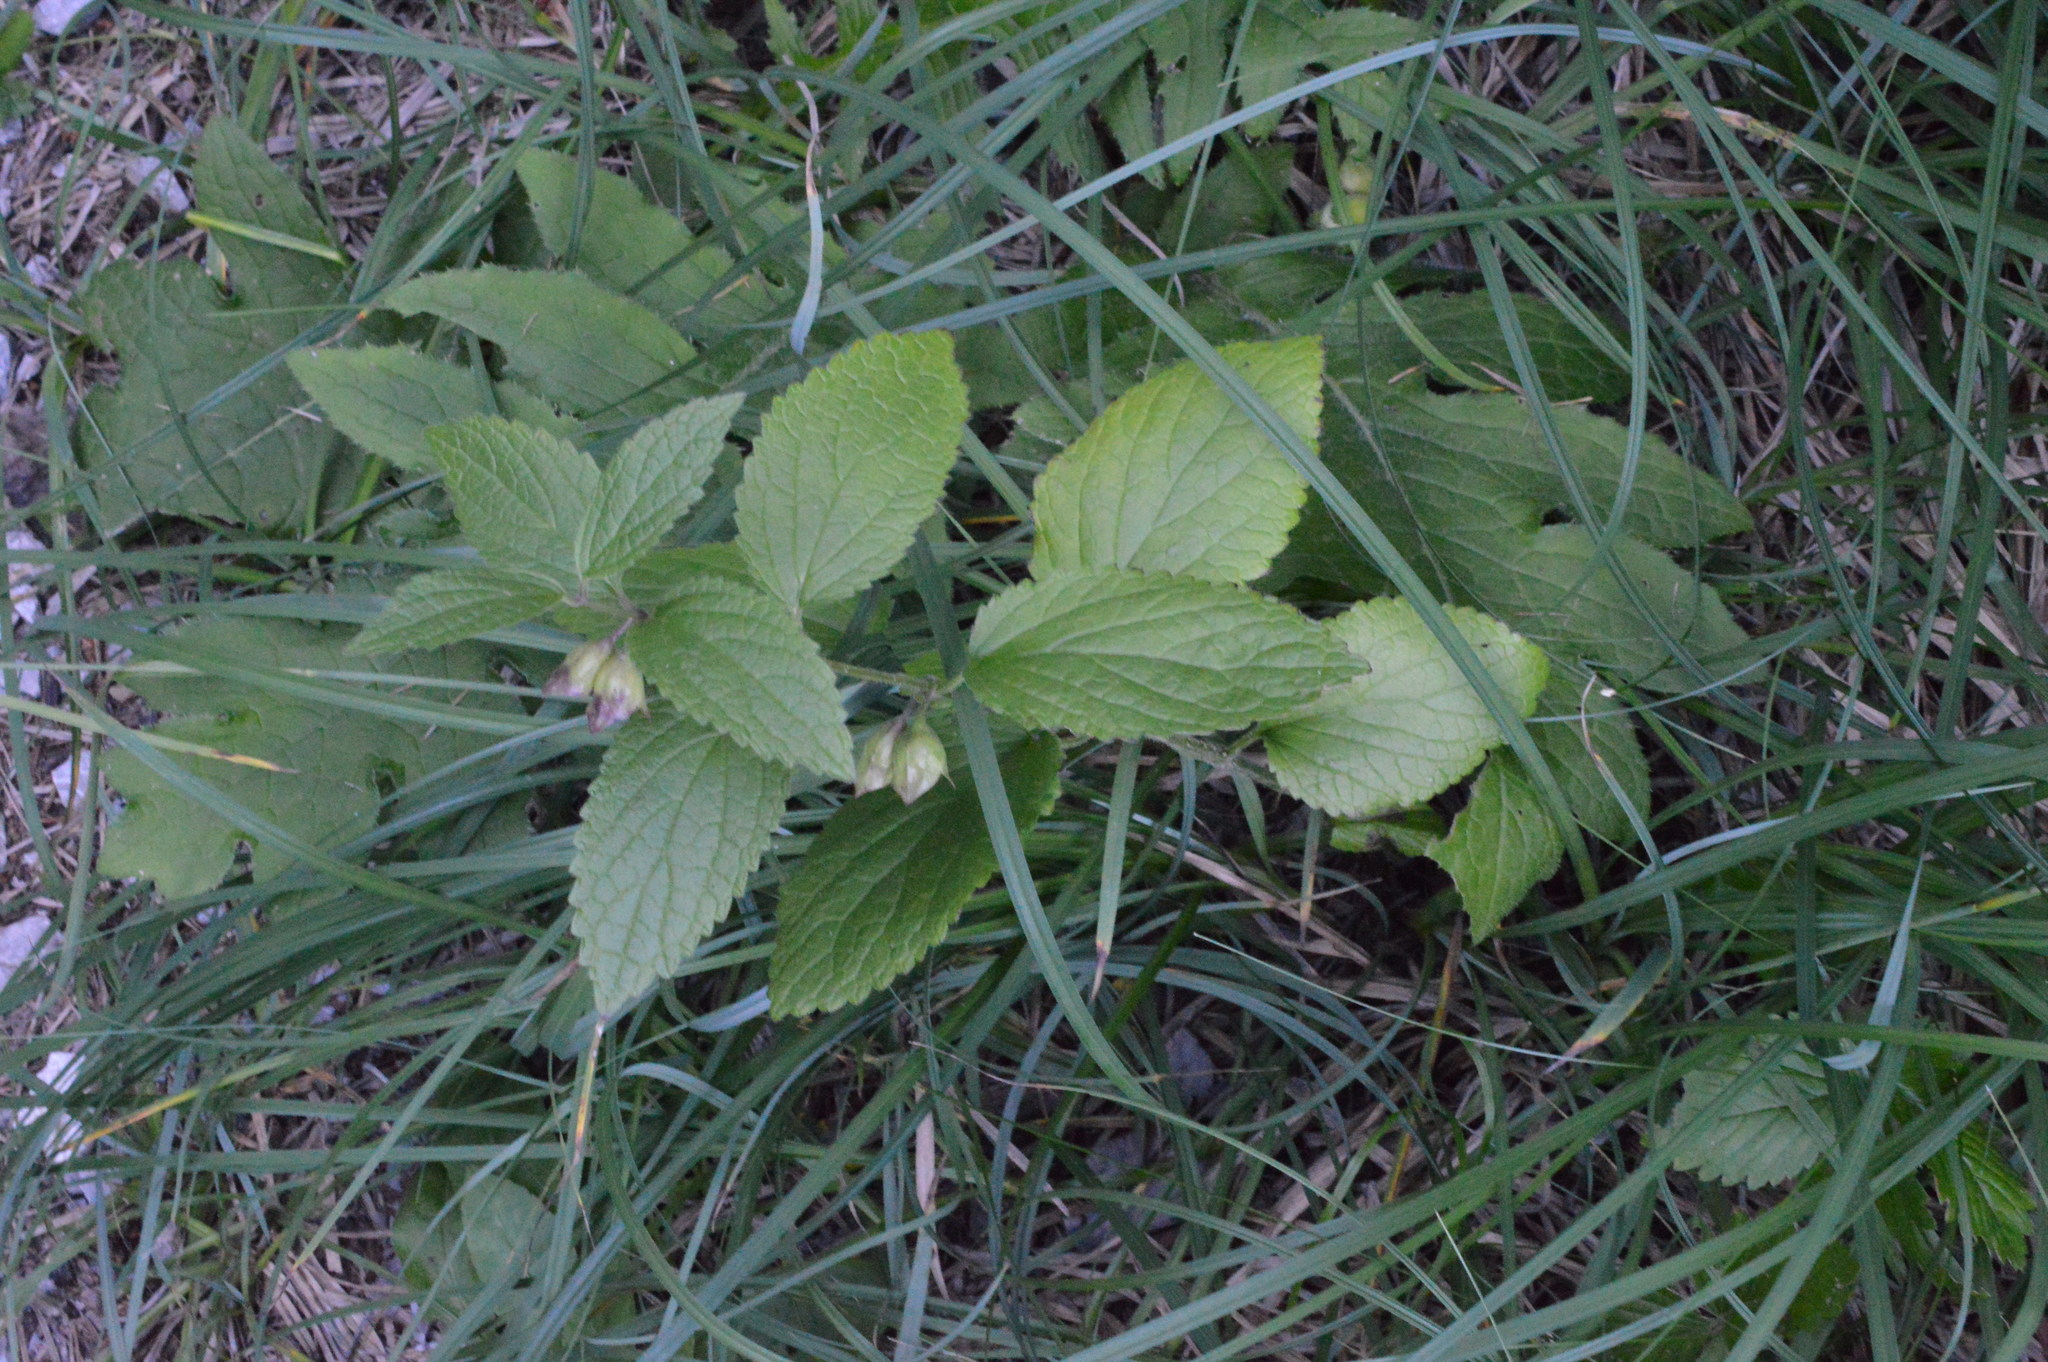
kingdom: Plantae
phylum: Tracheophyta
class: Magnoliopsida
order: Lamiales
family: Lamiaceae
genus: Melittis
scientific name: Melittis melissophyllum
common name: Bastard balm
